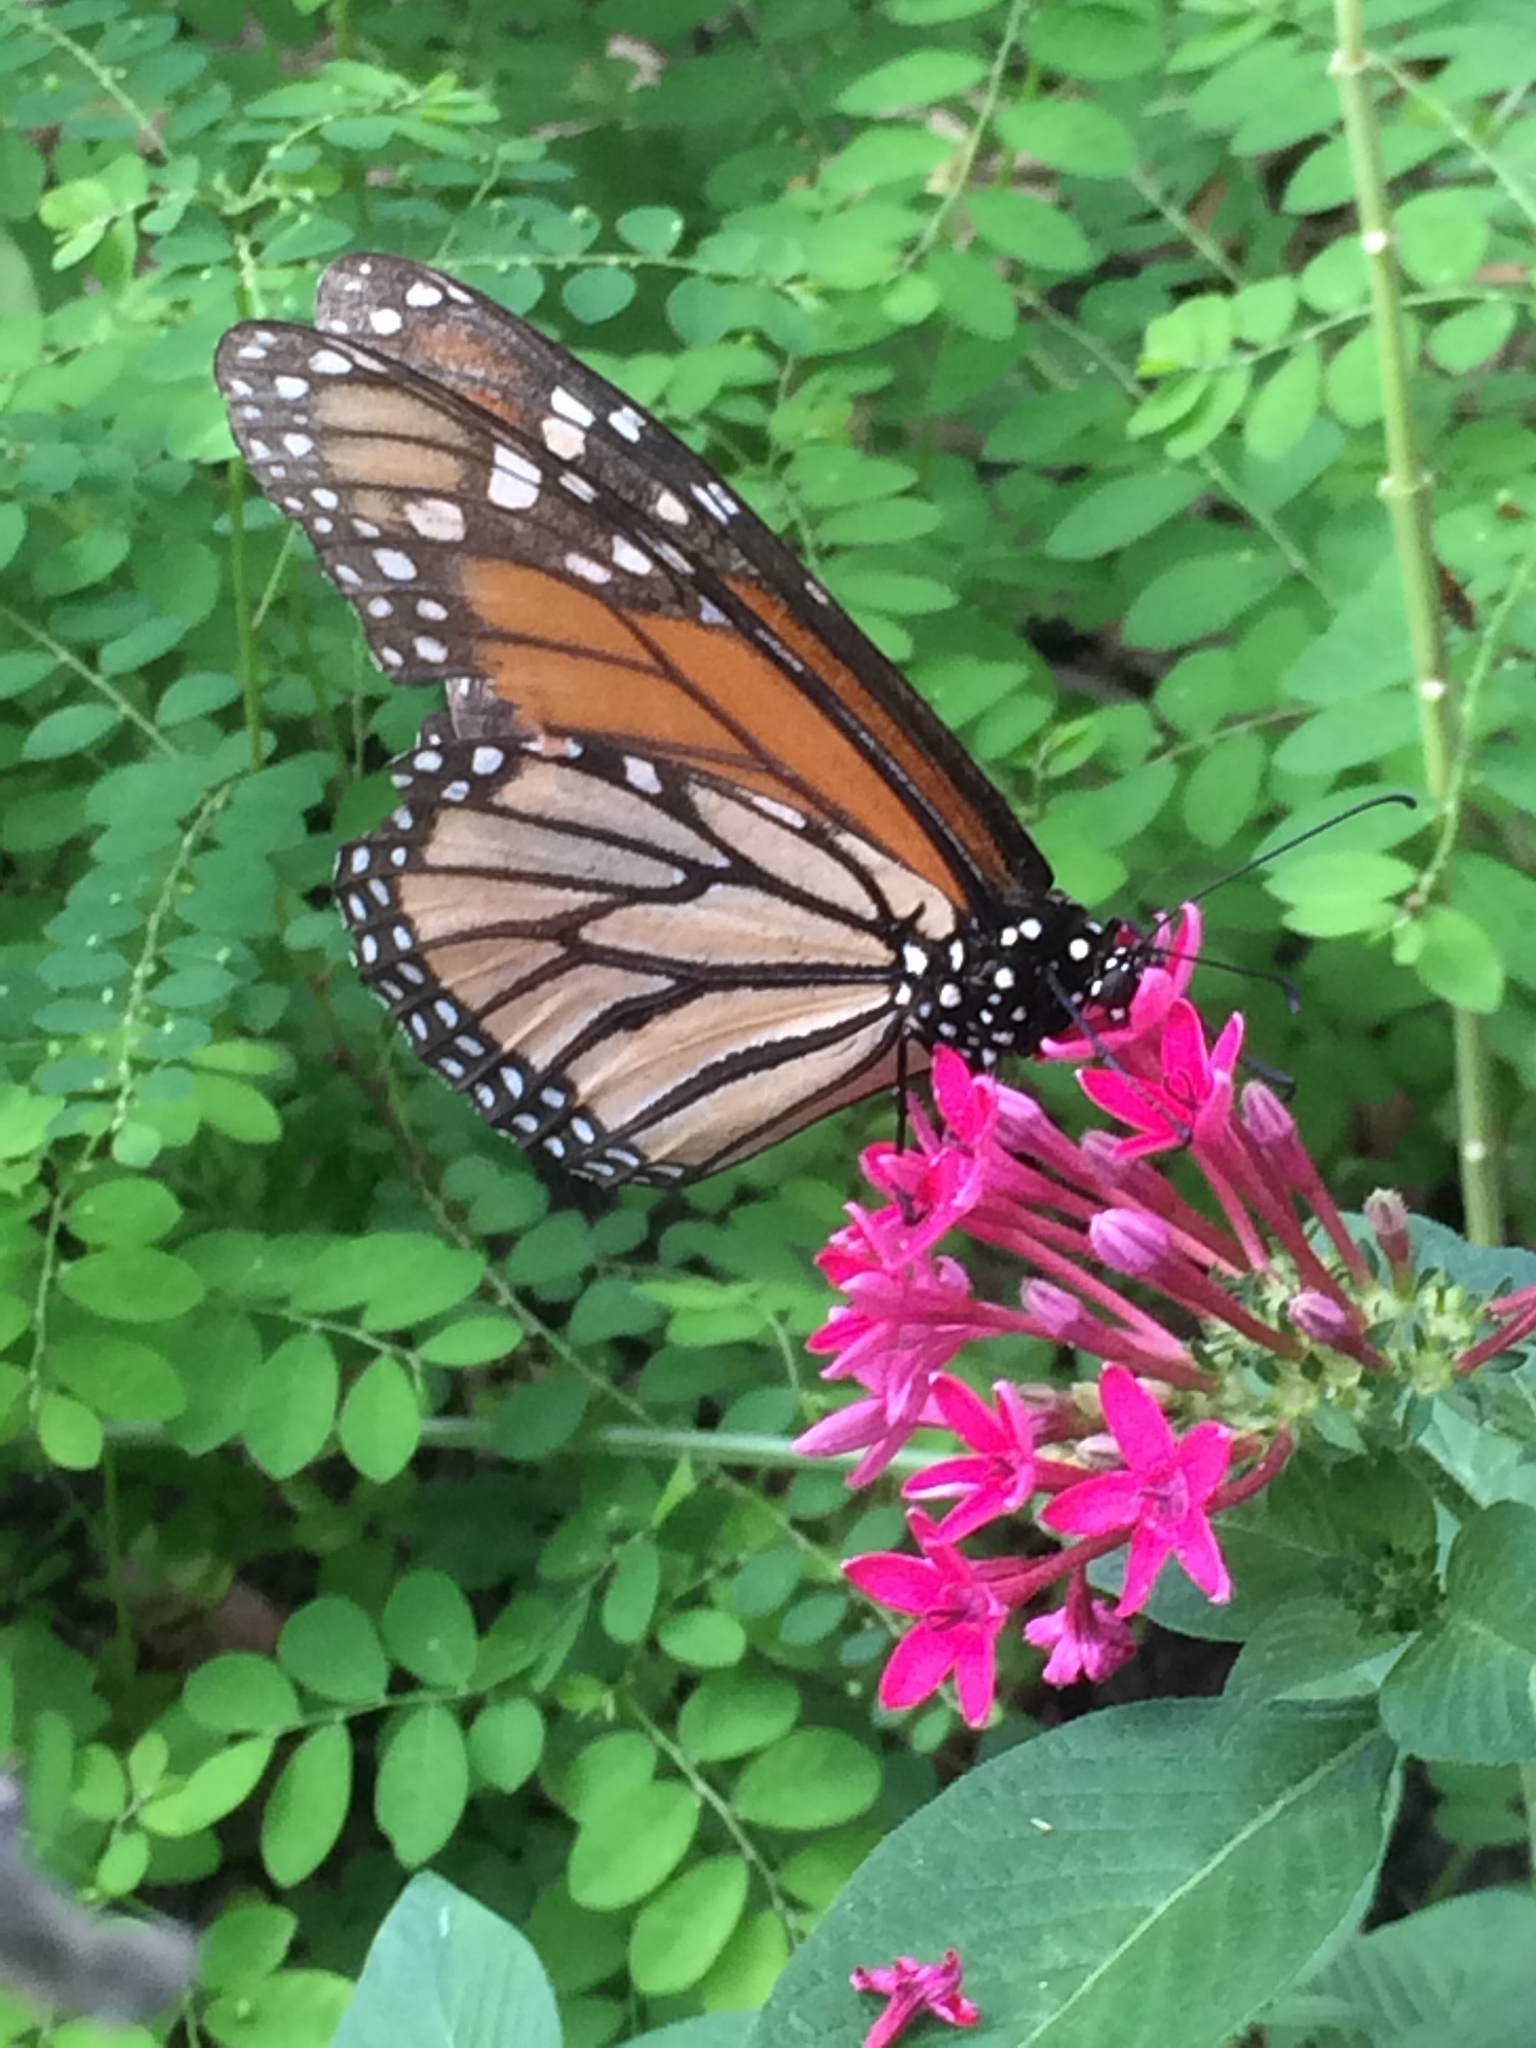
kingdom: Animalia
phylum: Arthropoda
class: Insecta
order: Lepidoptera
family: Nymphalidae
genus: Danaus
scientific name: Danaus plexippus
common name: Monarch
